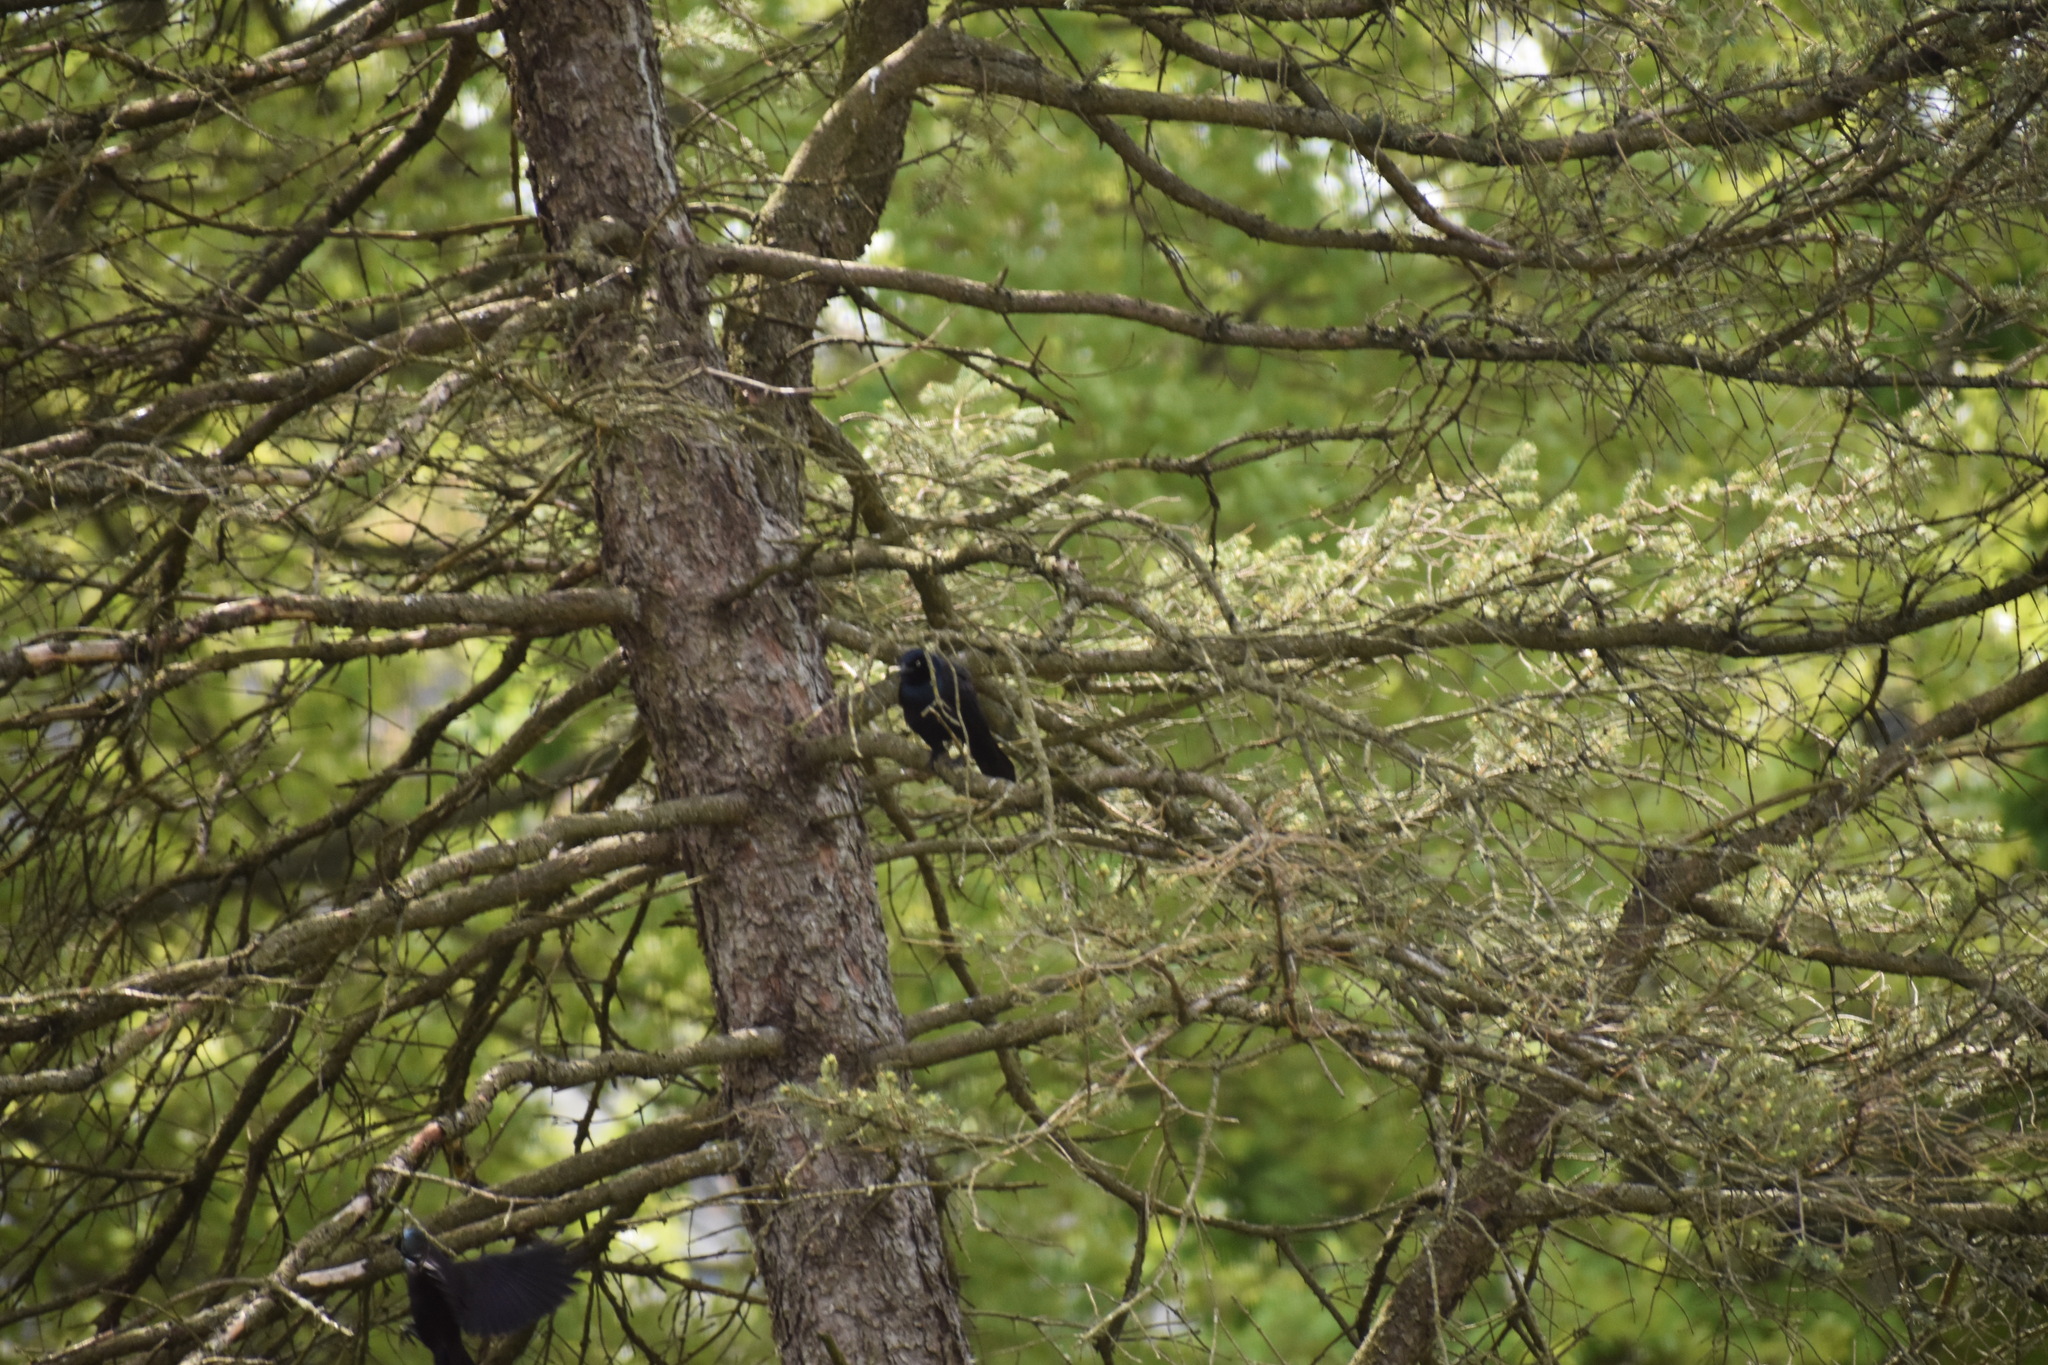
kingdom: Animalia
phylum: Chordata
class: Aves
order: Passeriformes
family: Icteridae
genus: Quiscalus
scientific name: Quiscalus quiscula
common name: Common grackle
